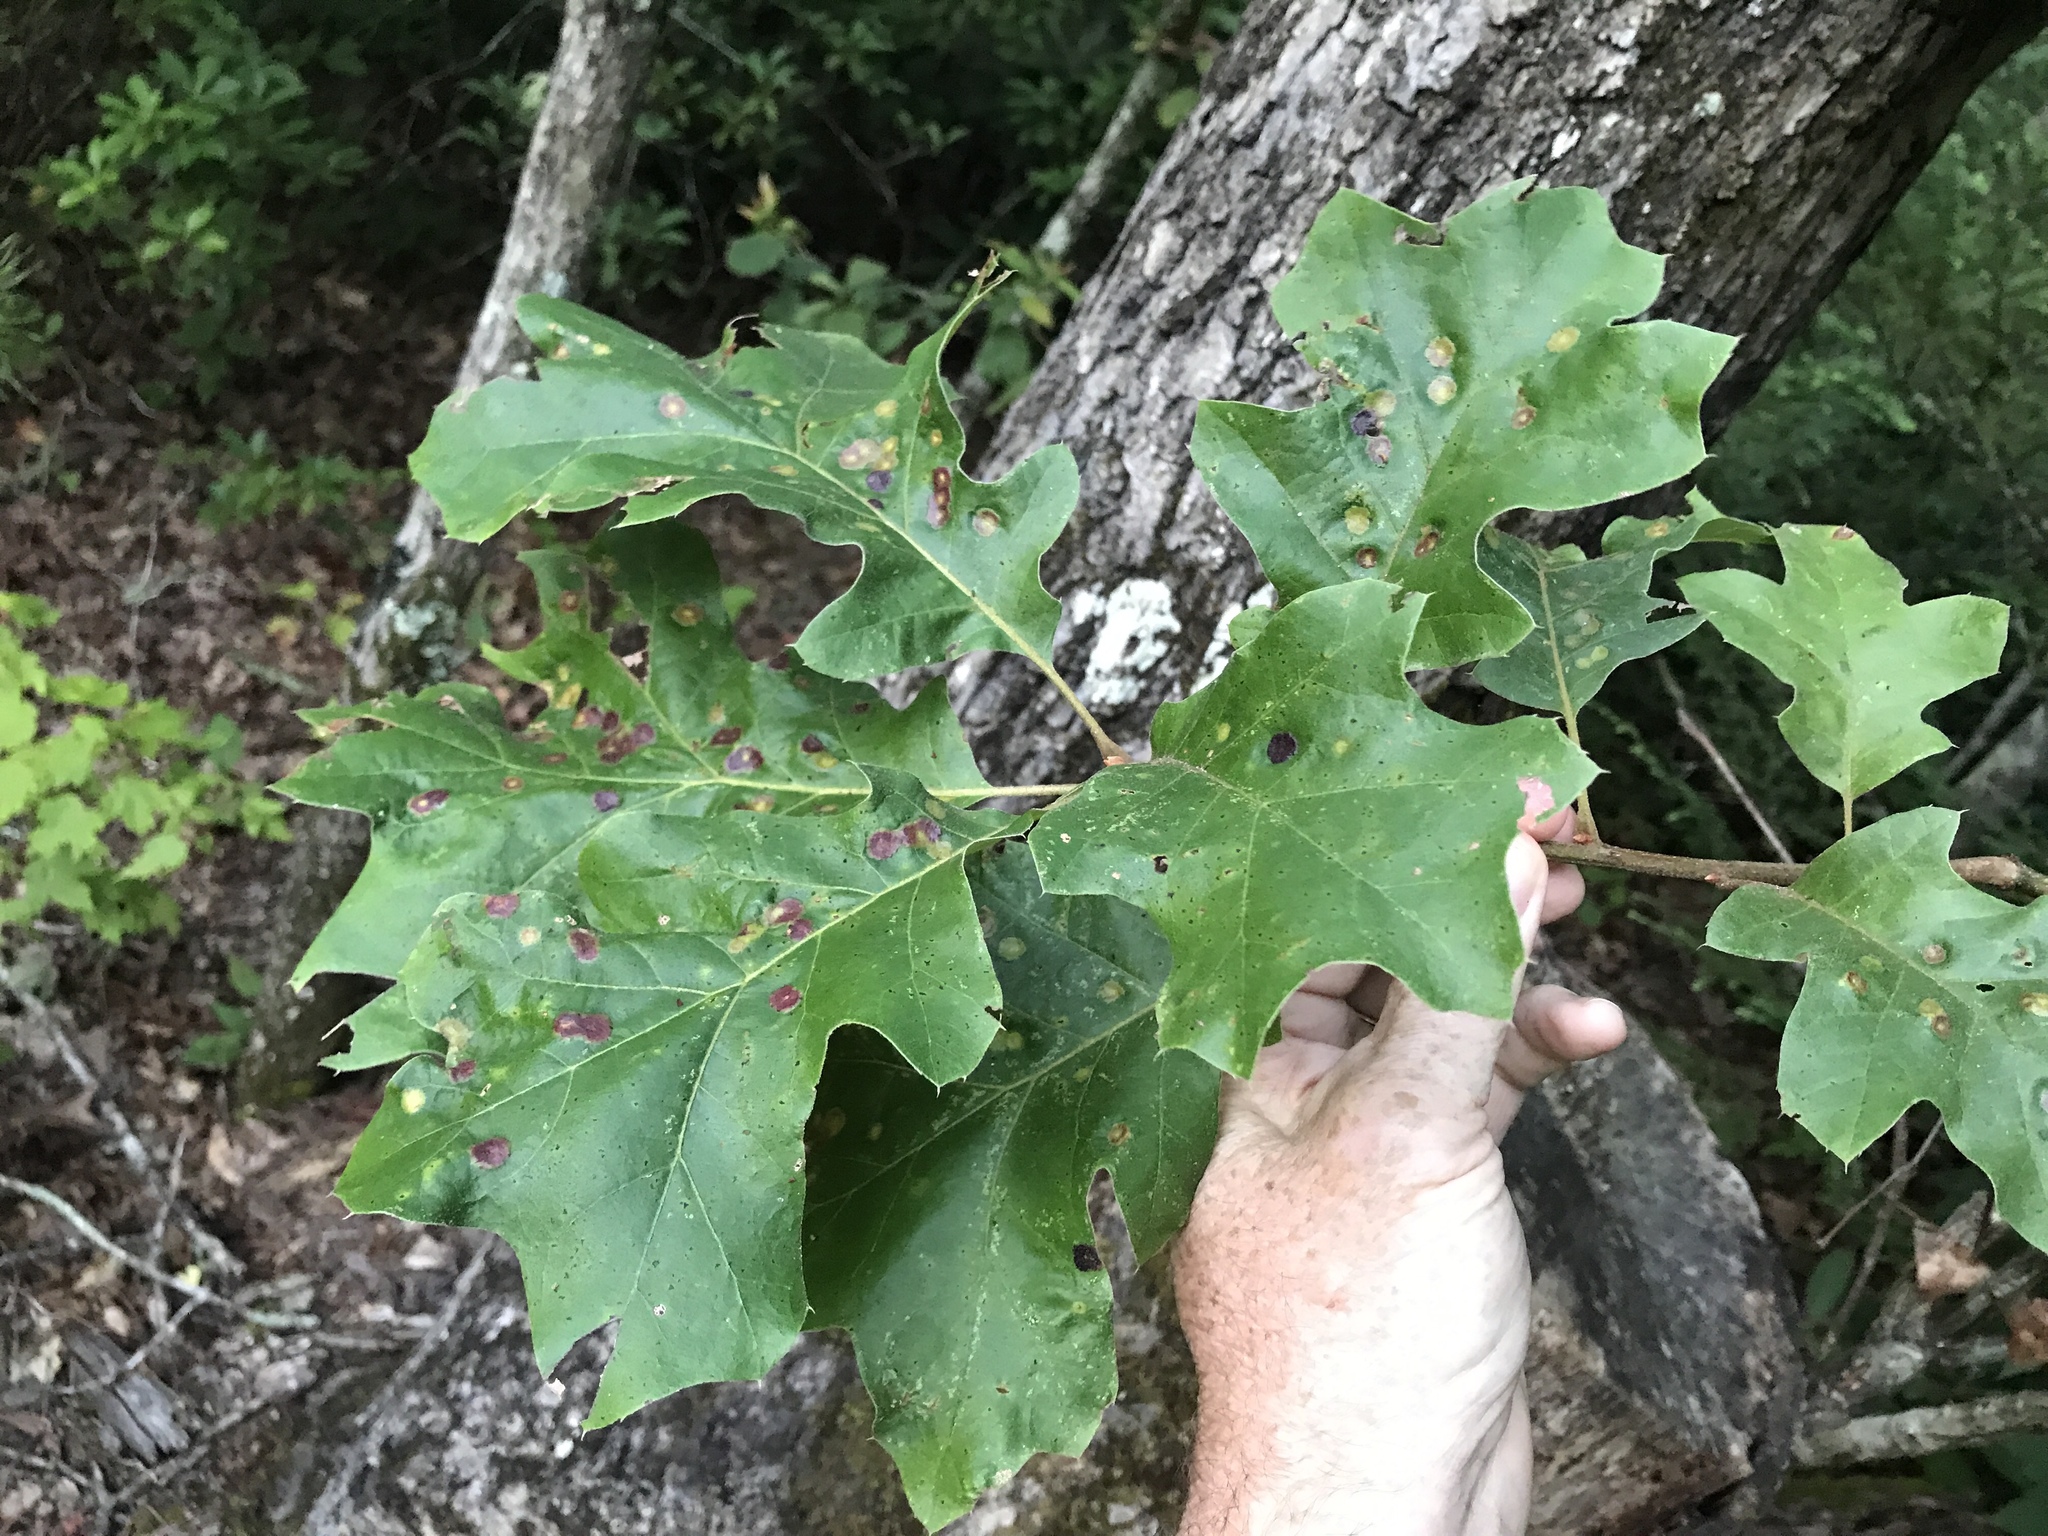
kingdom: Plantae
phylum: Tracheophyta
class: Magnoliopsida
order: Fagales
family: Fagaceae
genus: Quercus
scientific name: Quercus velutina
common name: Black oak
